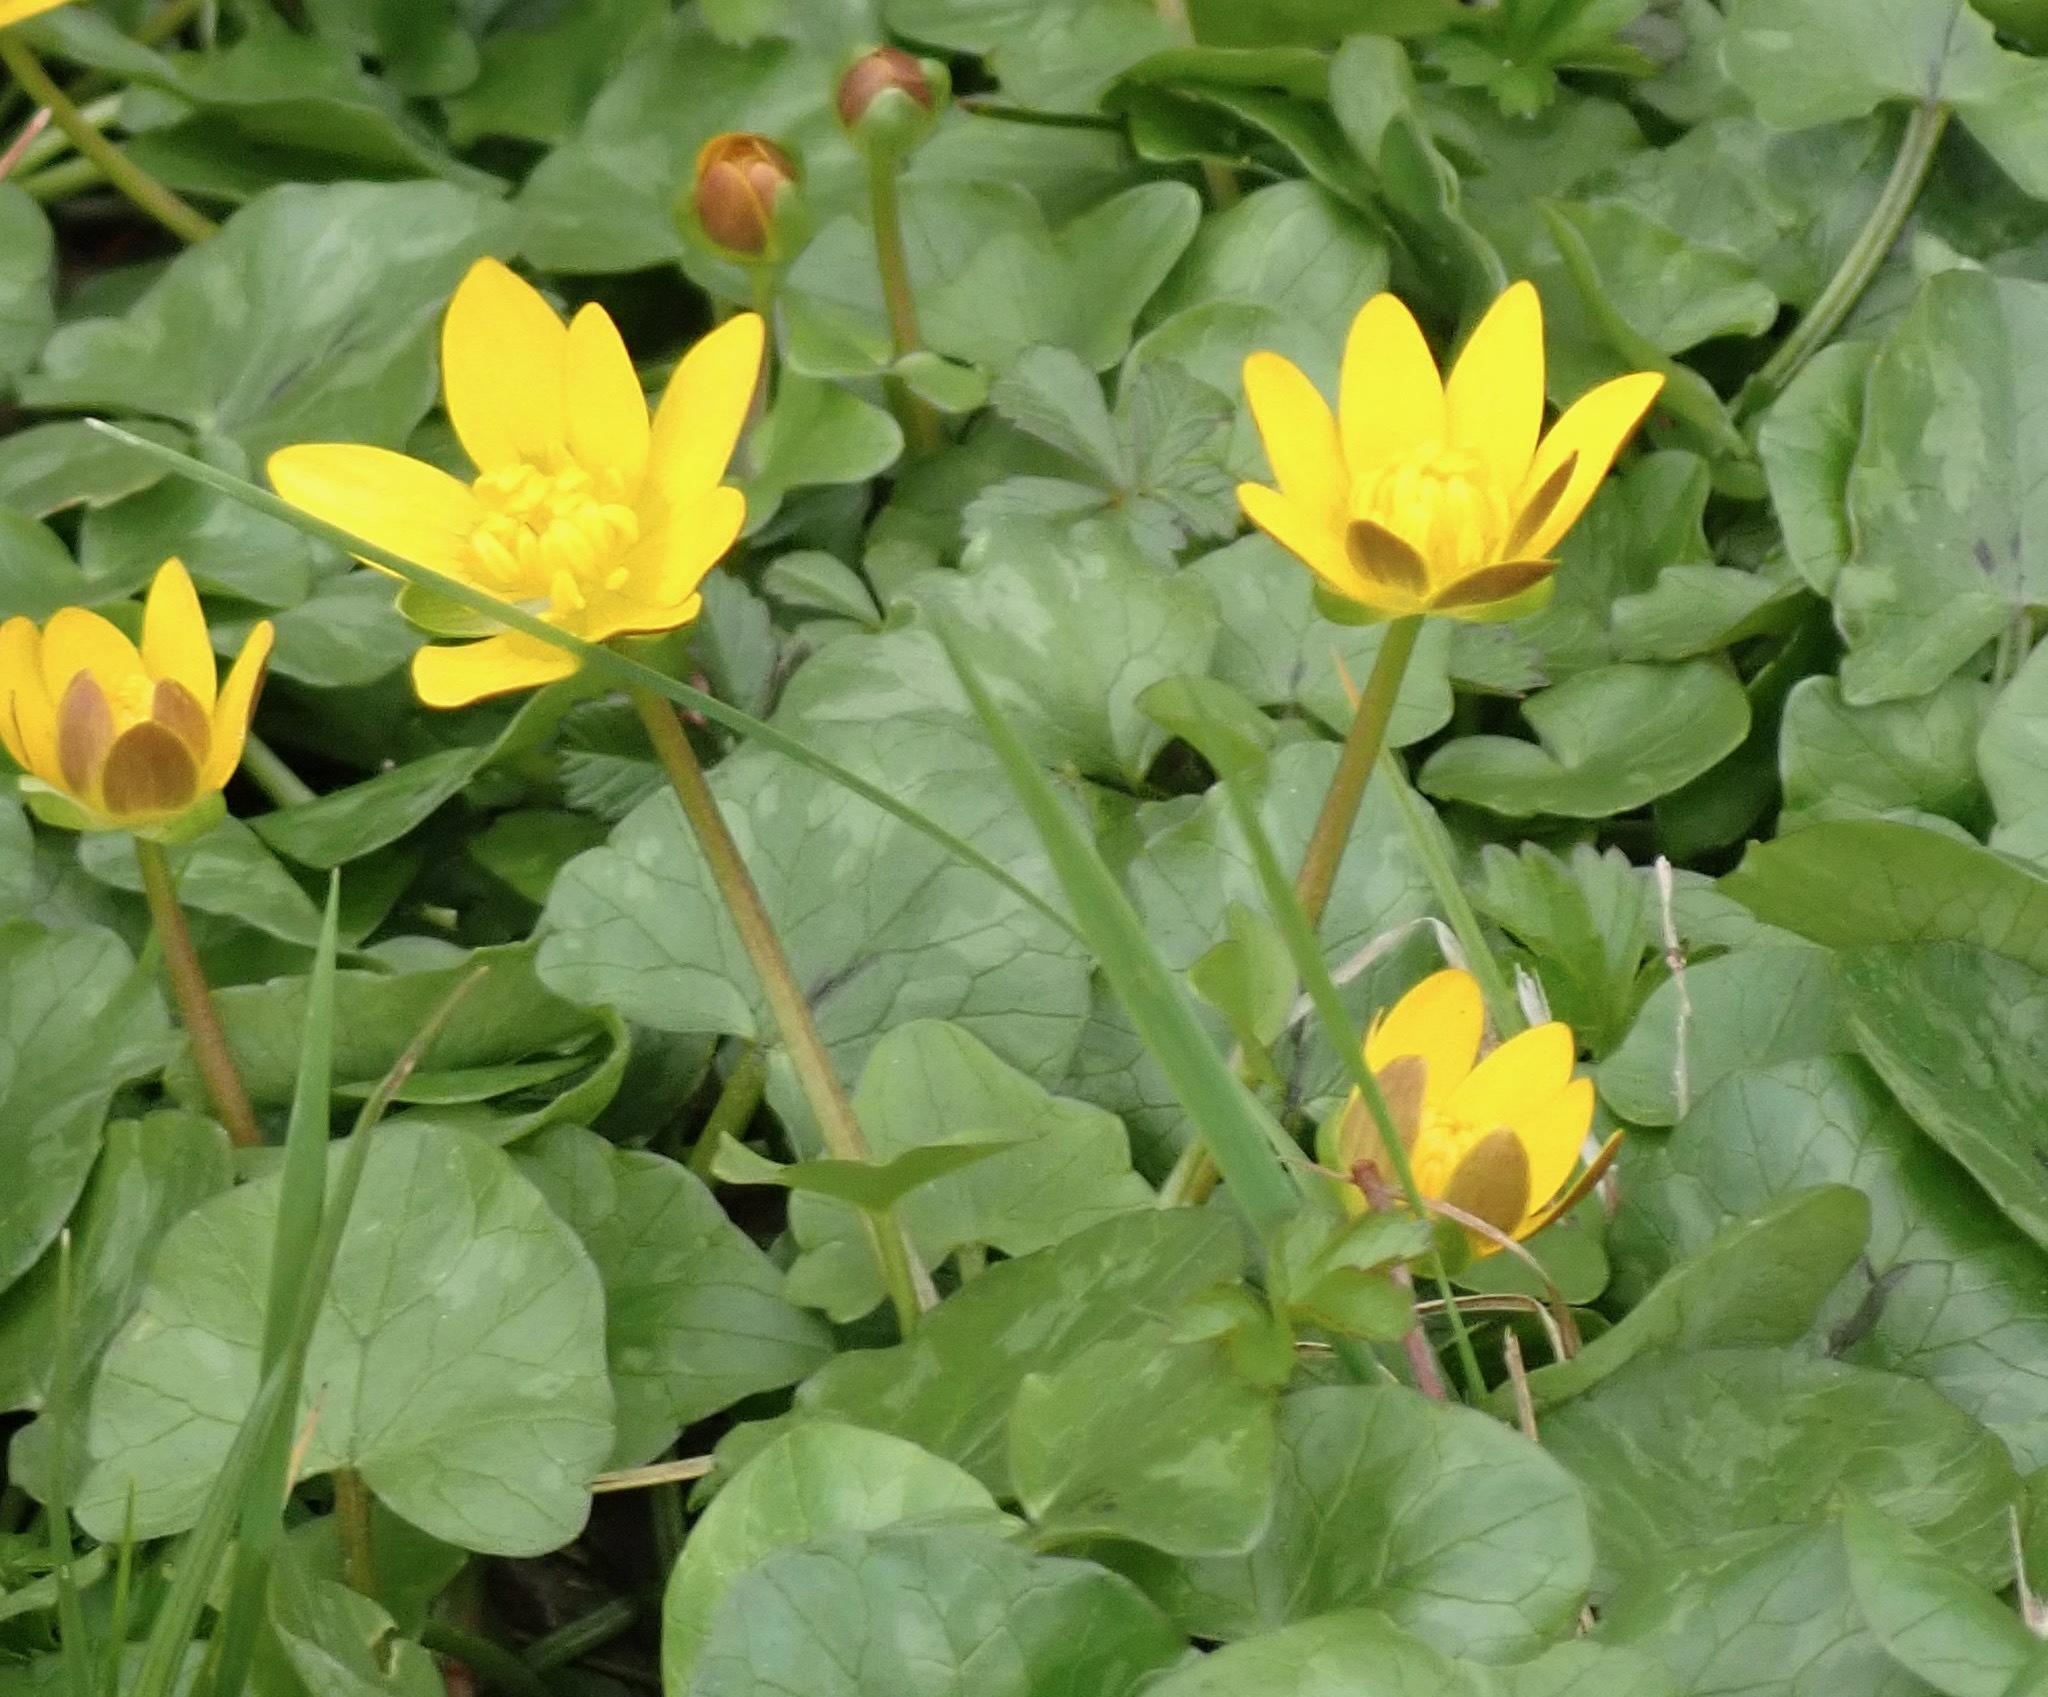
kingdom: Plantae
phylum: Tracheophyta
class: Magnoliopsida
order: Ranunculales
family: Ranunculaceae
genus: Ficaria
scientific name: Ficaria verna
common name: Lesser celandine
